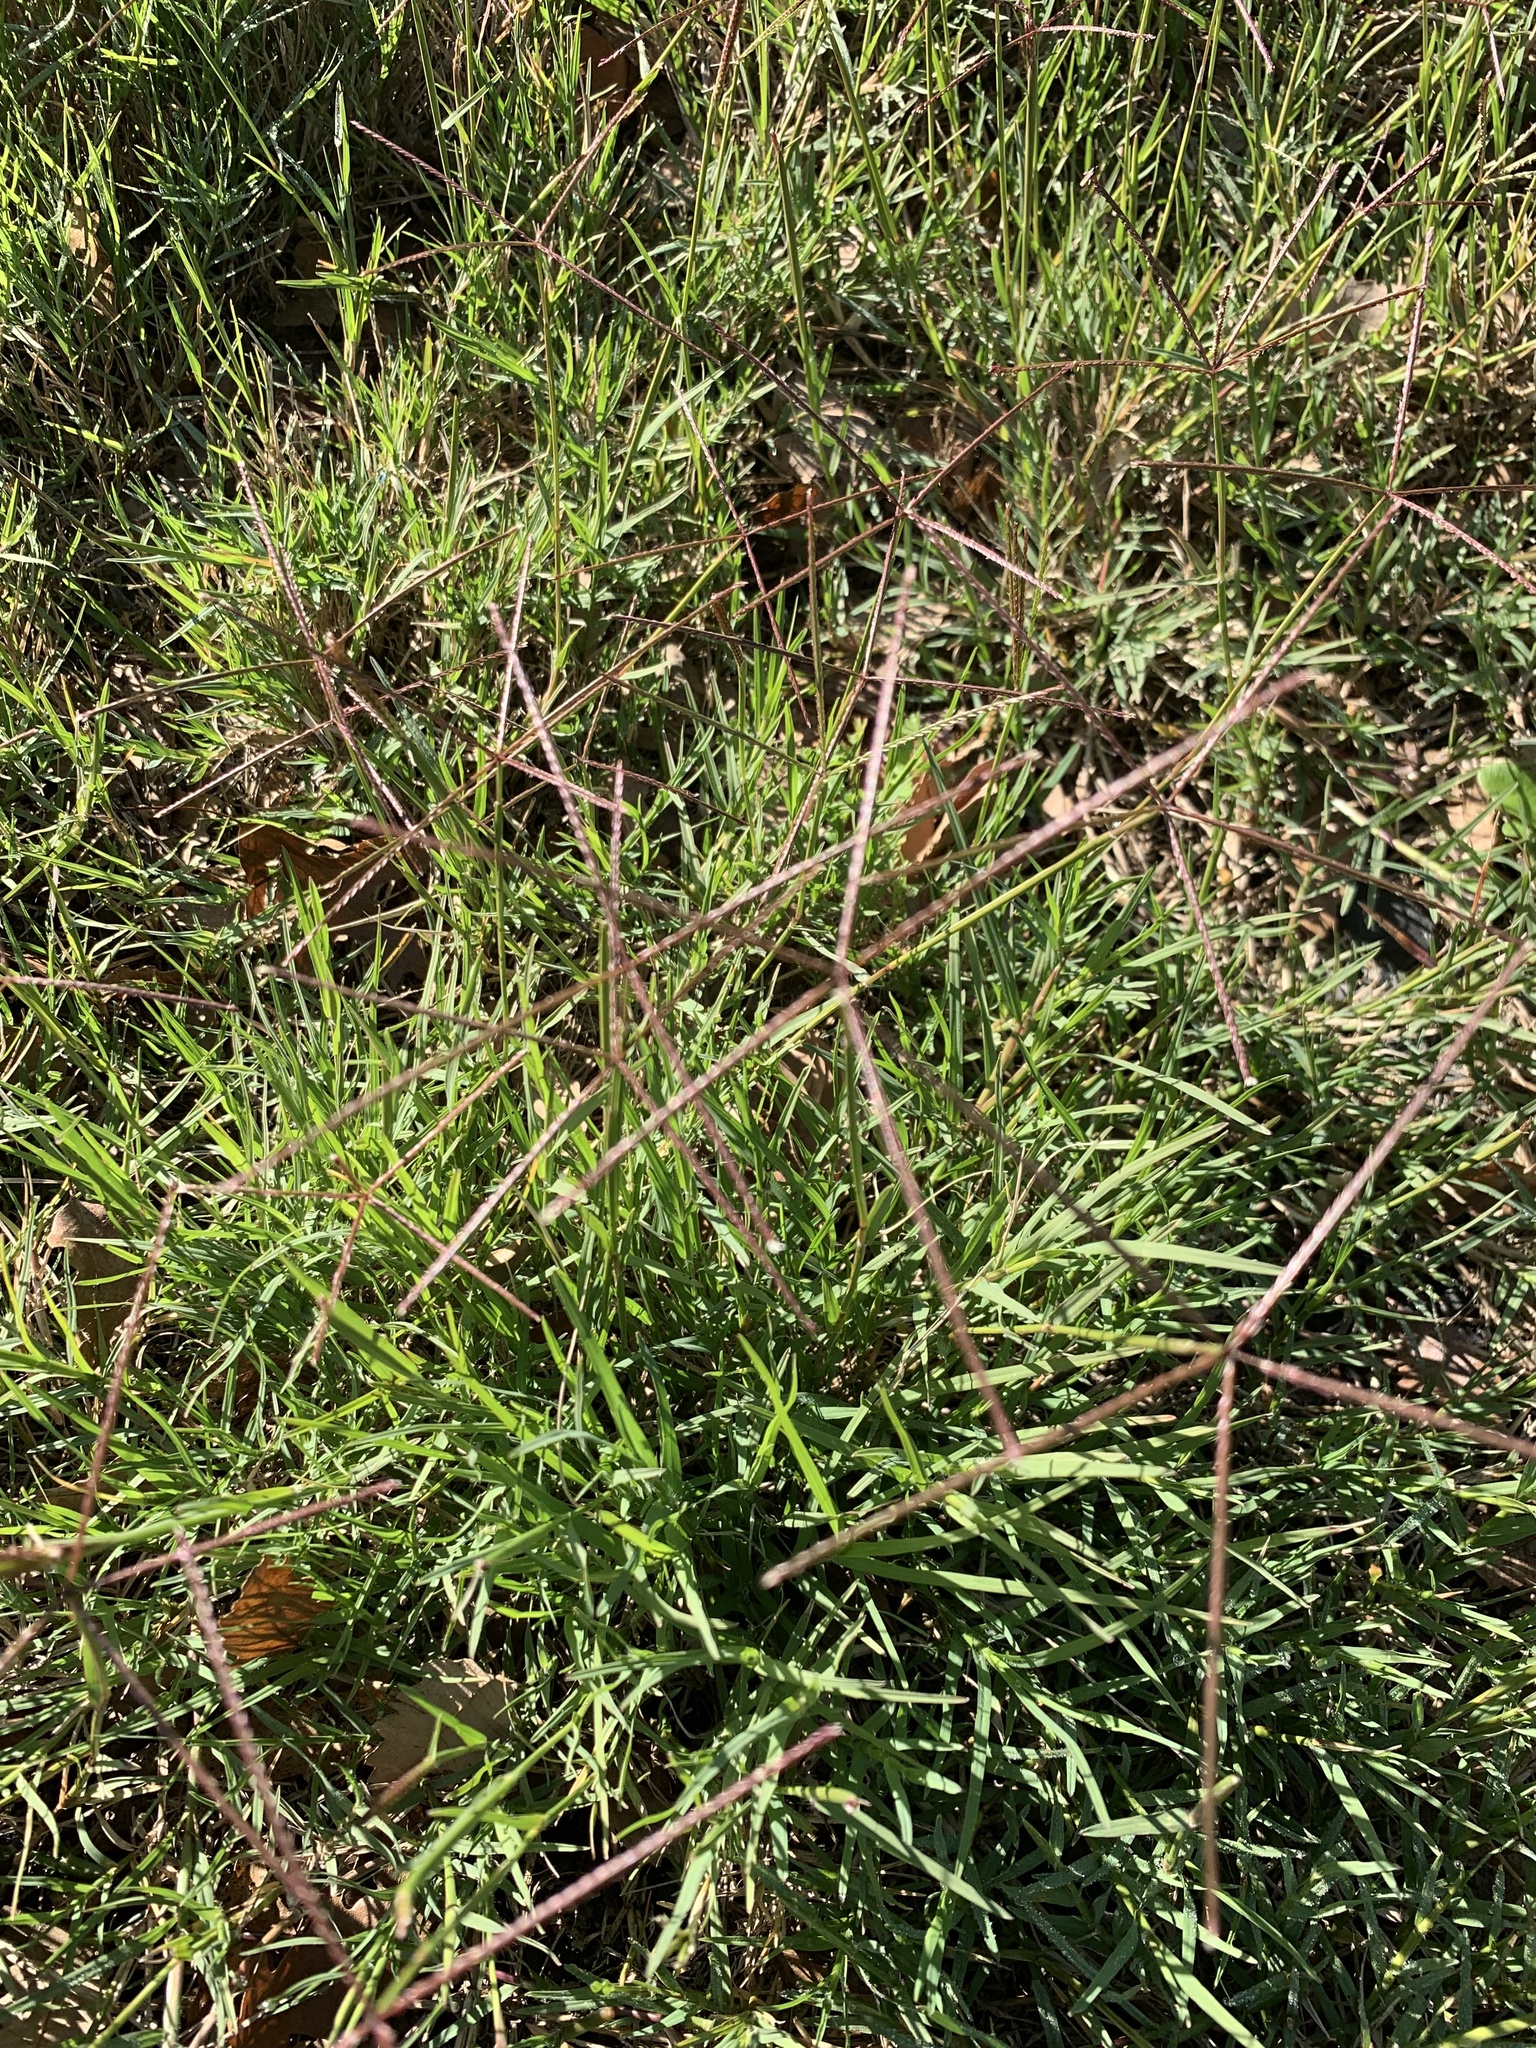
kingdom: Plantae
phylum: Tracheophyta
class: Liliopsida
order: Poales
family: Poaceae
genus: Cynodon
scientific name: Cynodon dactylon
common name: Bermuda grass
